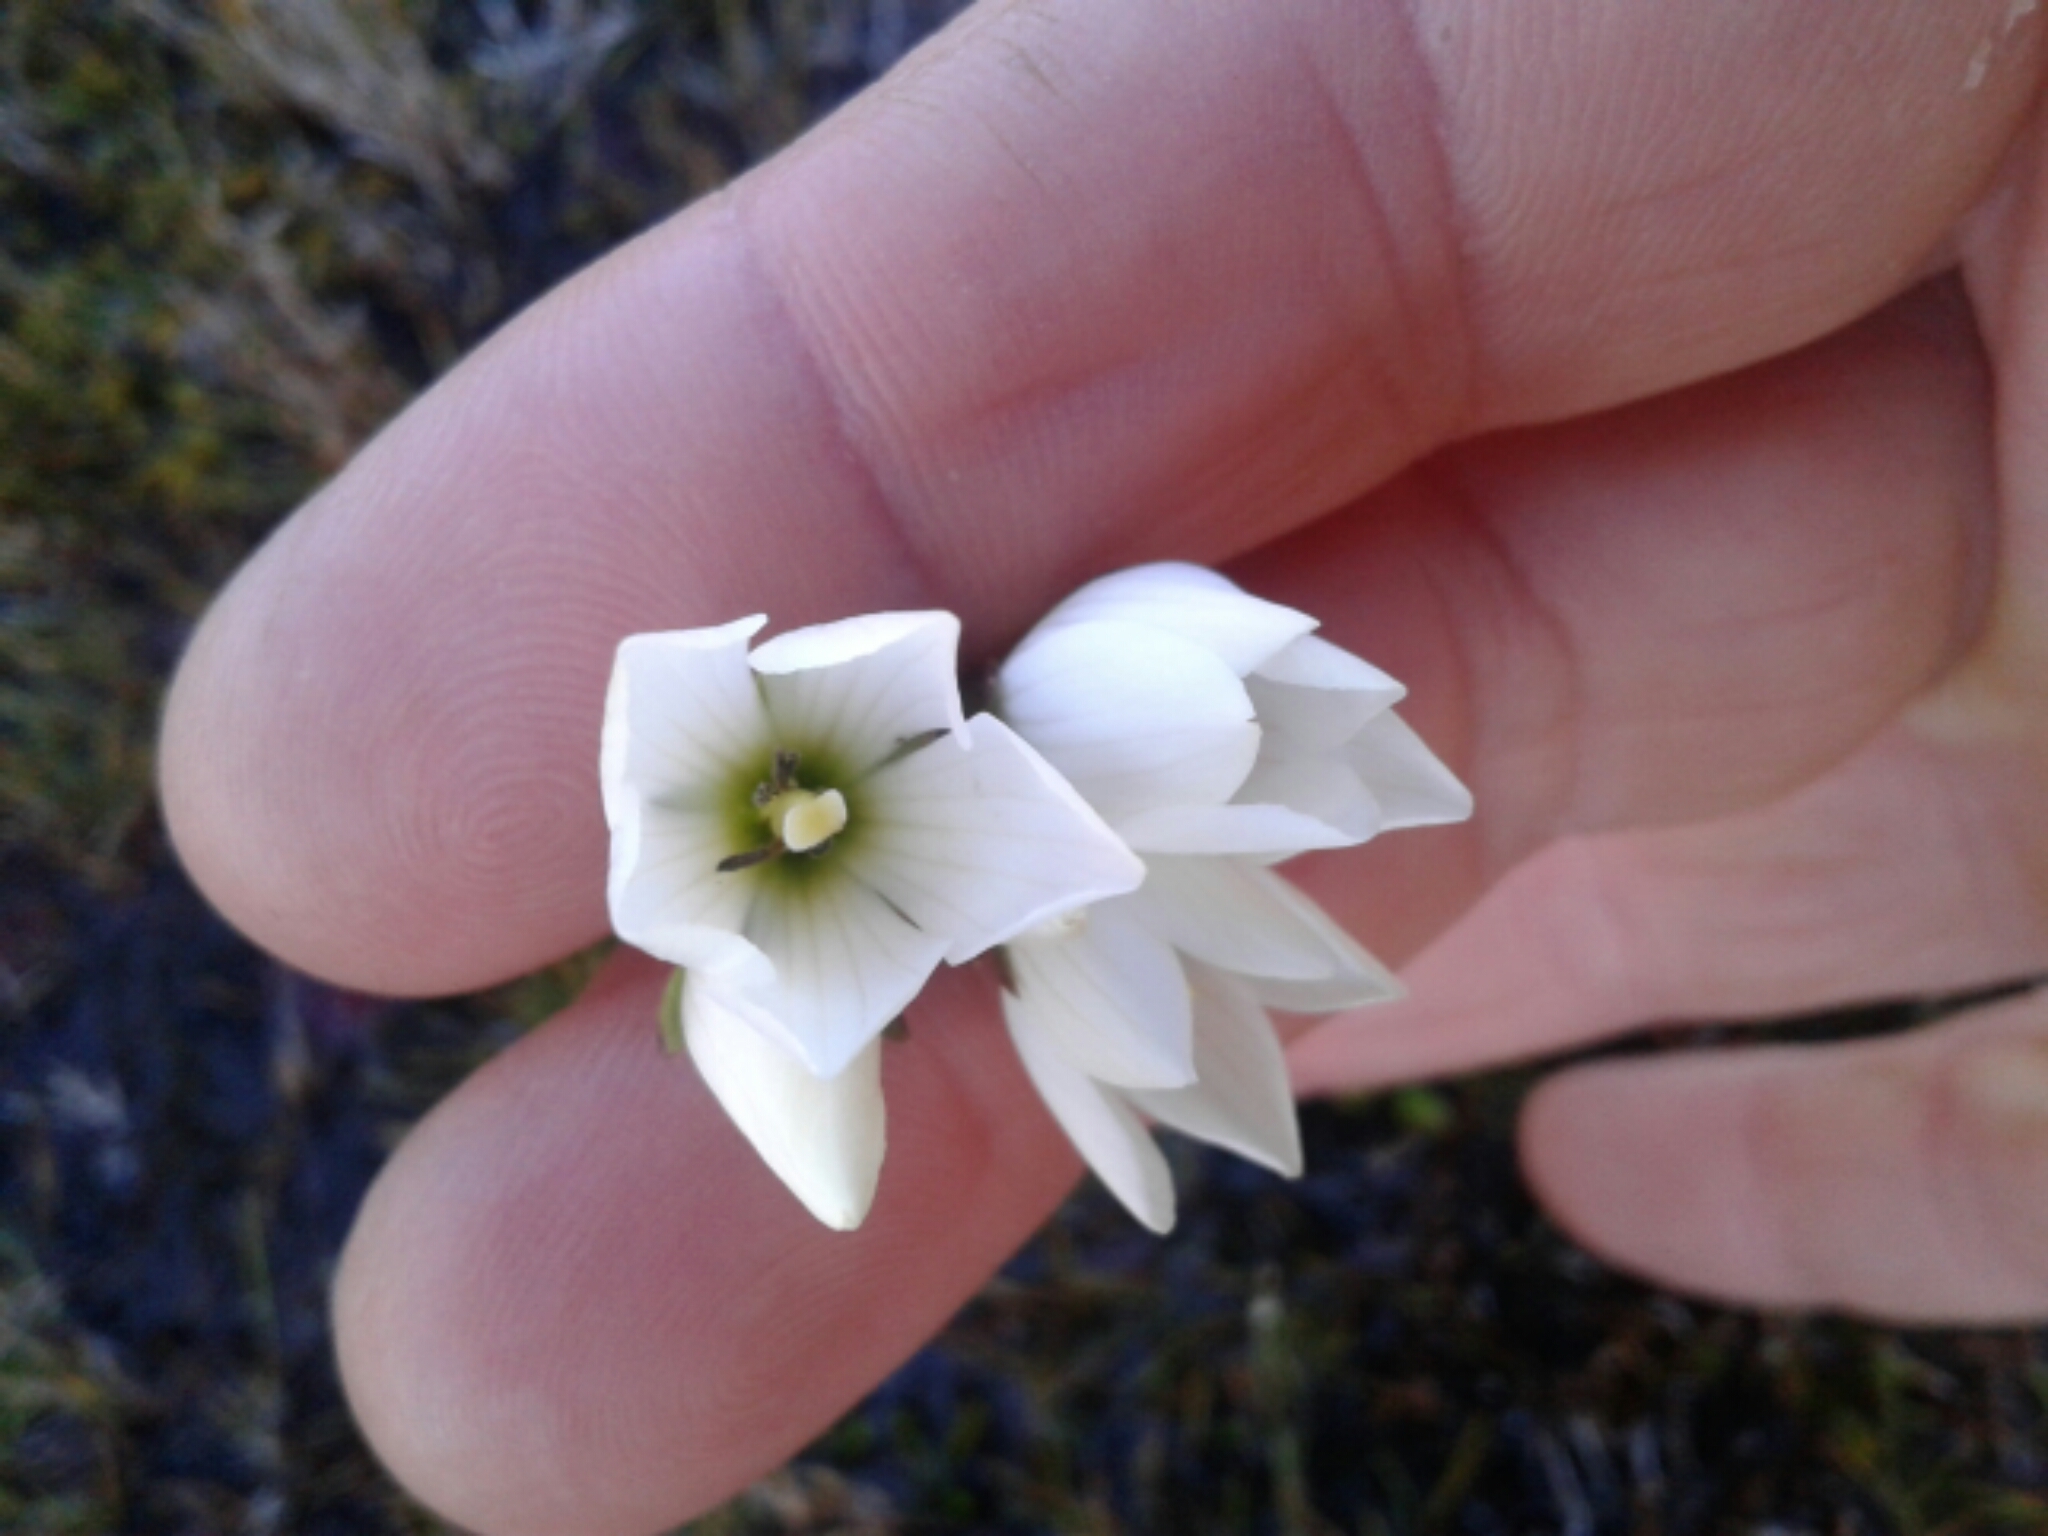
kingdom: Plantae
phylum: Tracheophyta
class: Magnoliopsida
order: Gentianales
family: Gentianaceae
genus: Gentianella
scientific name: Gentianella montana
